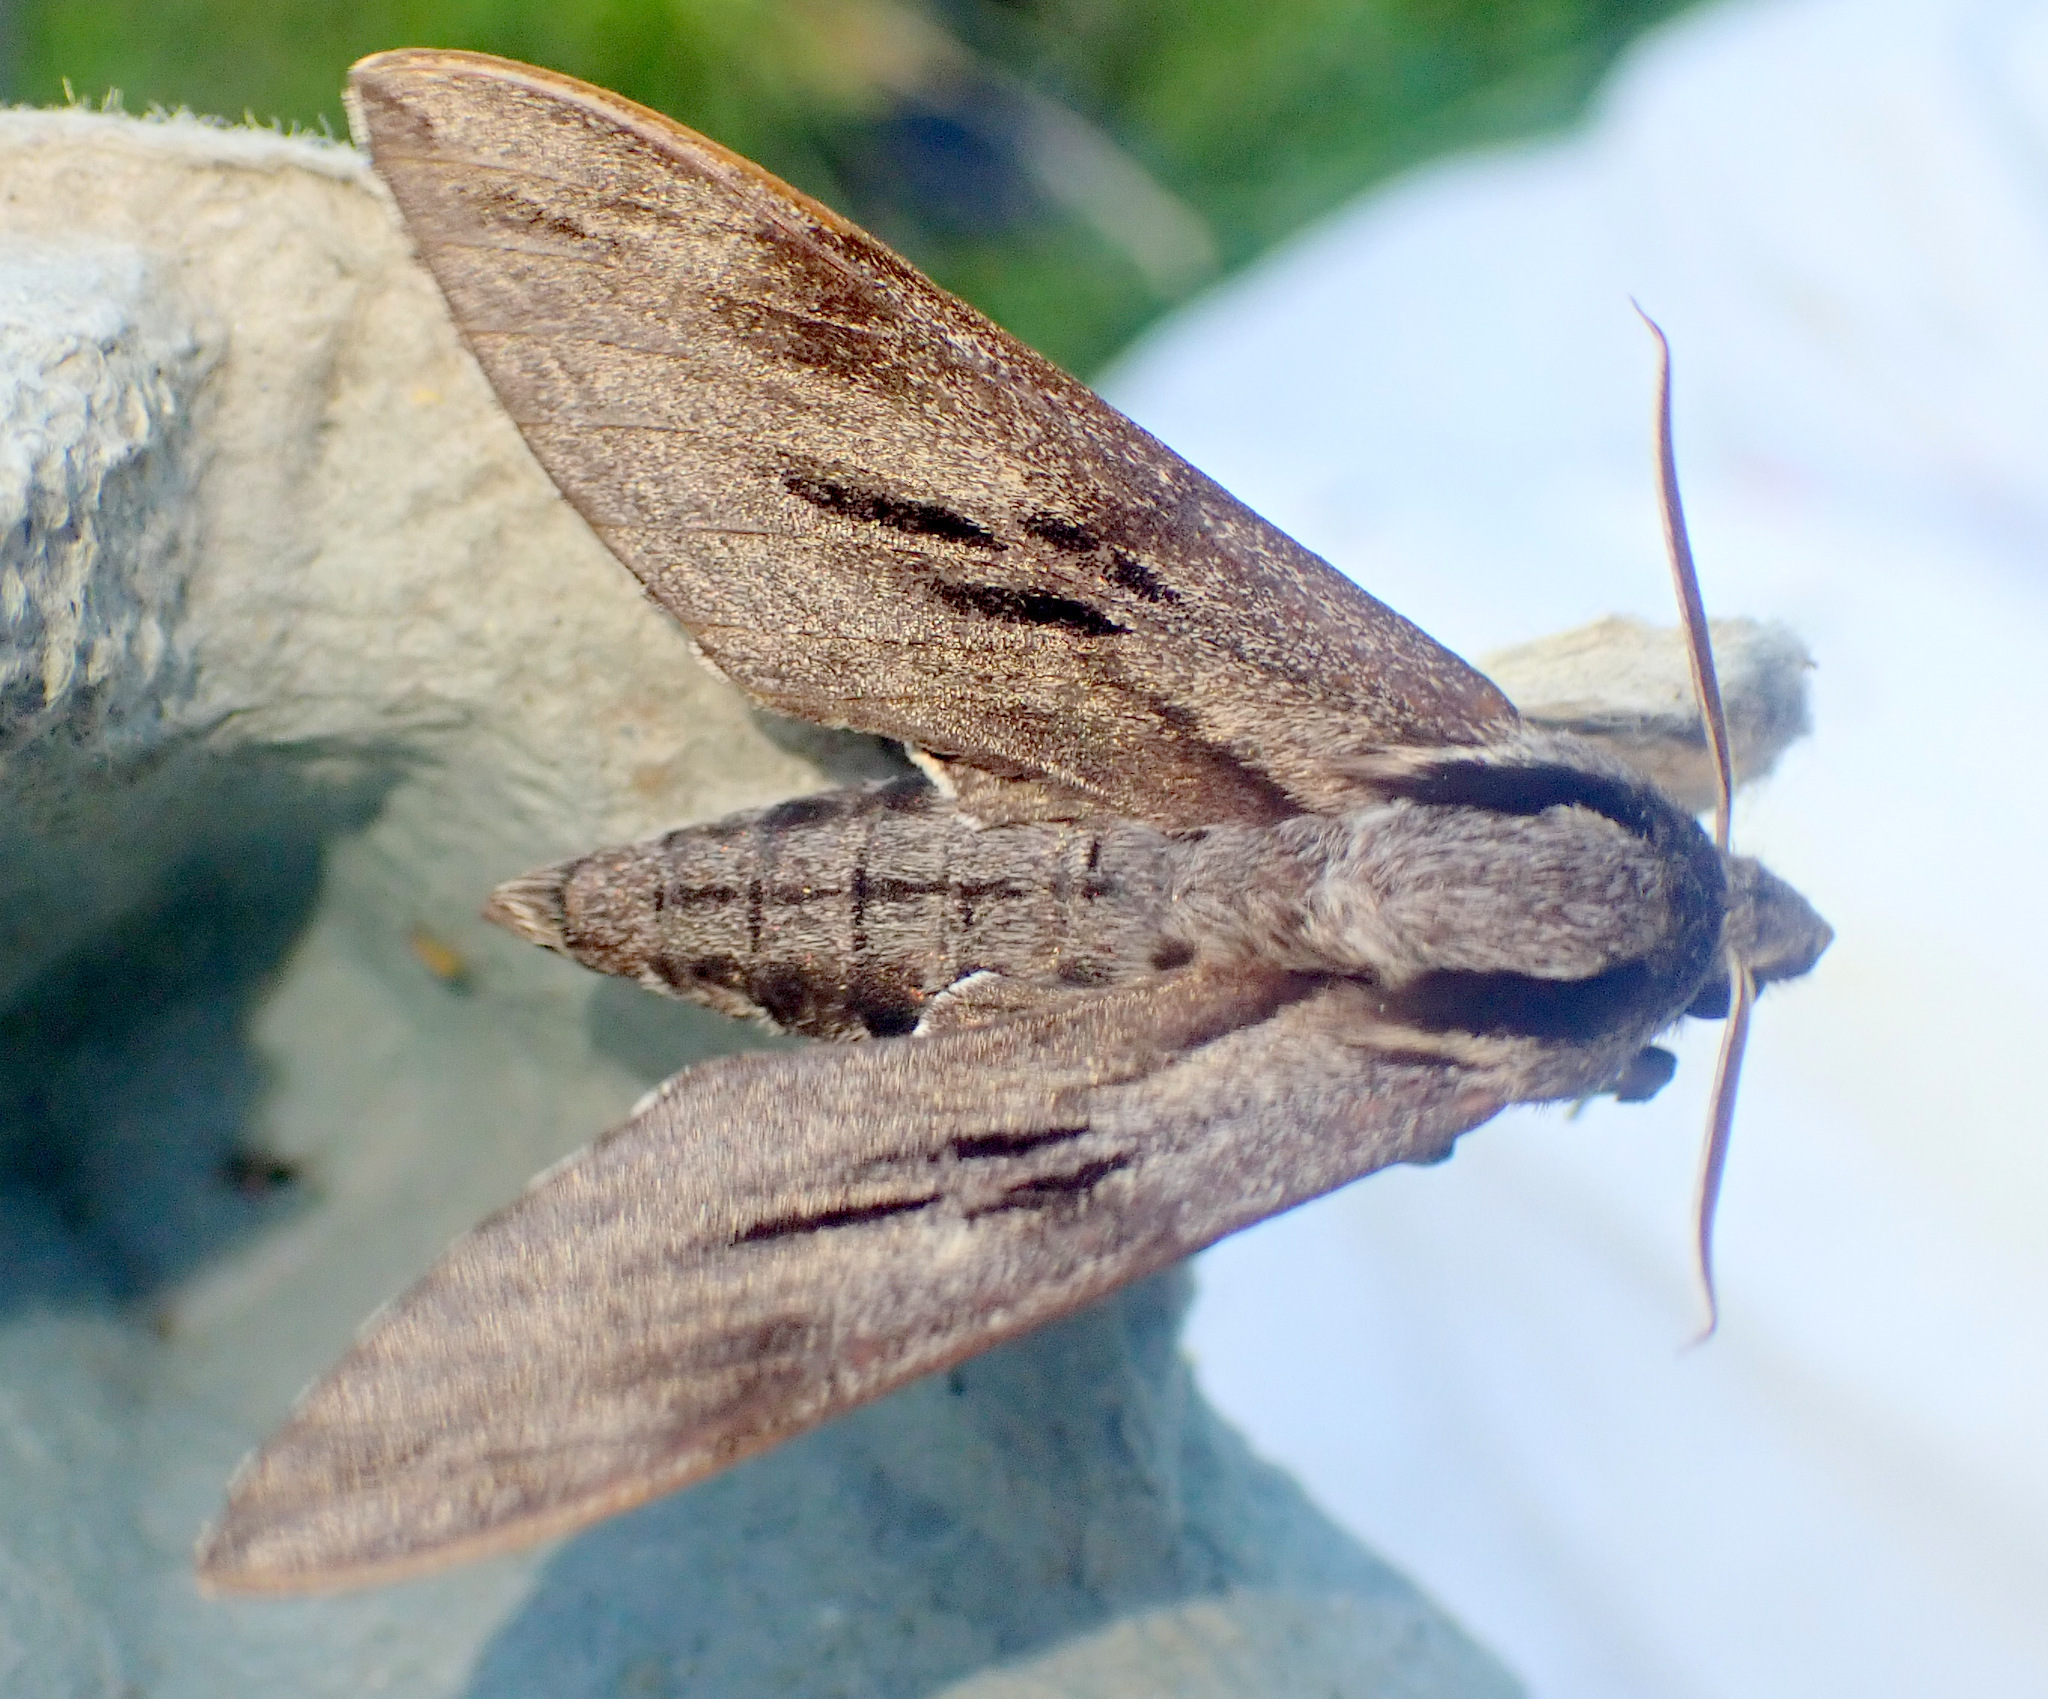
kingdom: Animalia
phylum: Arthropoda
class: Insecta
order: Lepidoptera
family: Sphingidae
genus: Sphinx
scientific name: Sphinx pinastri
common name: Pine hawk-moth
